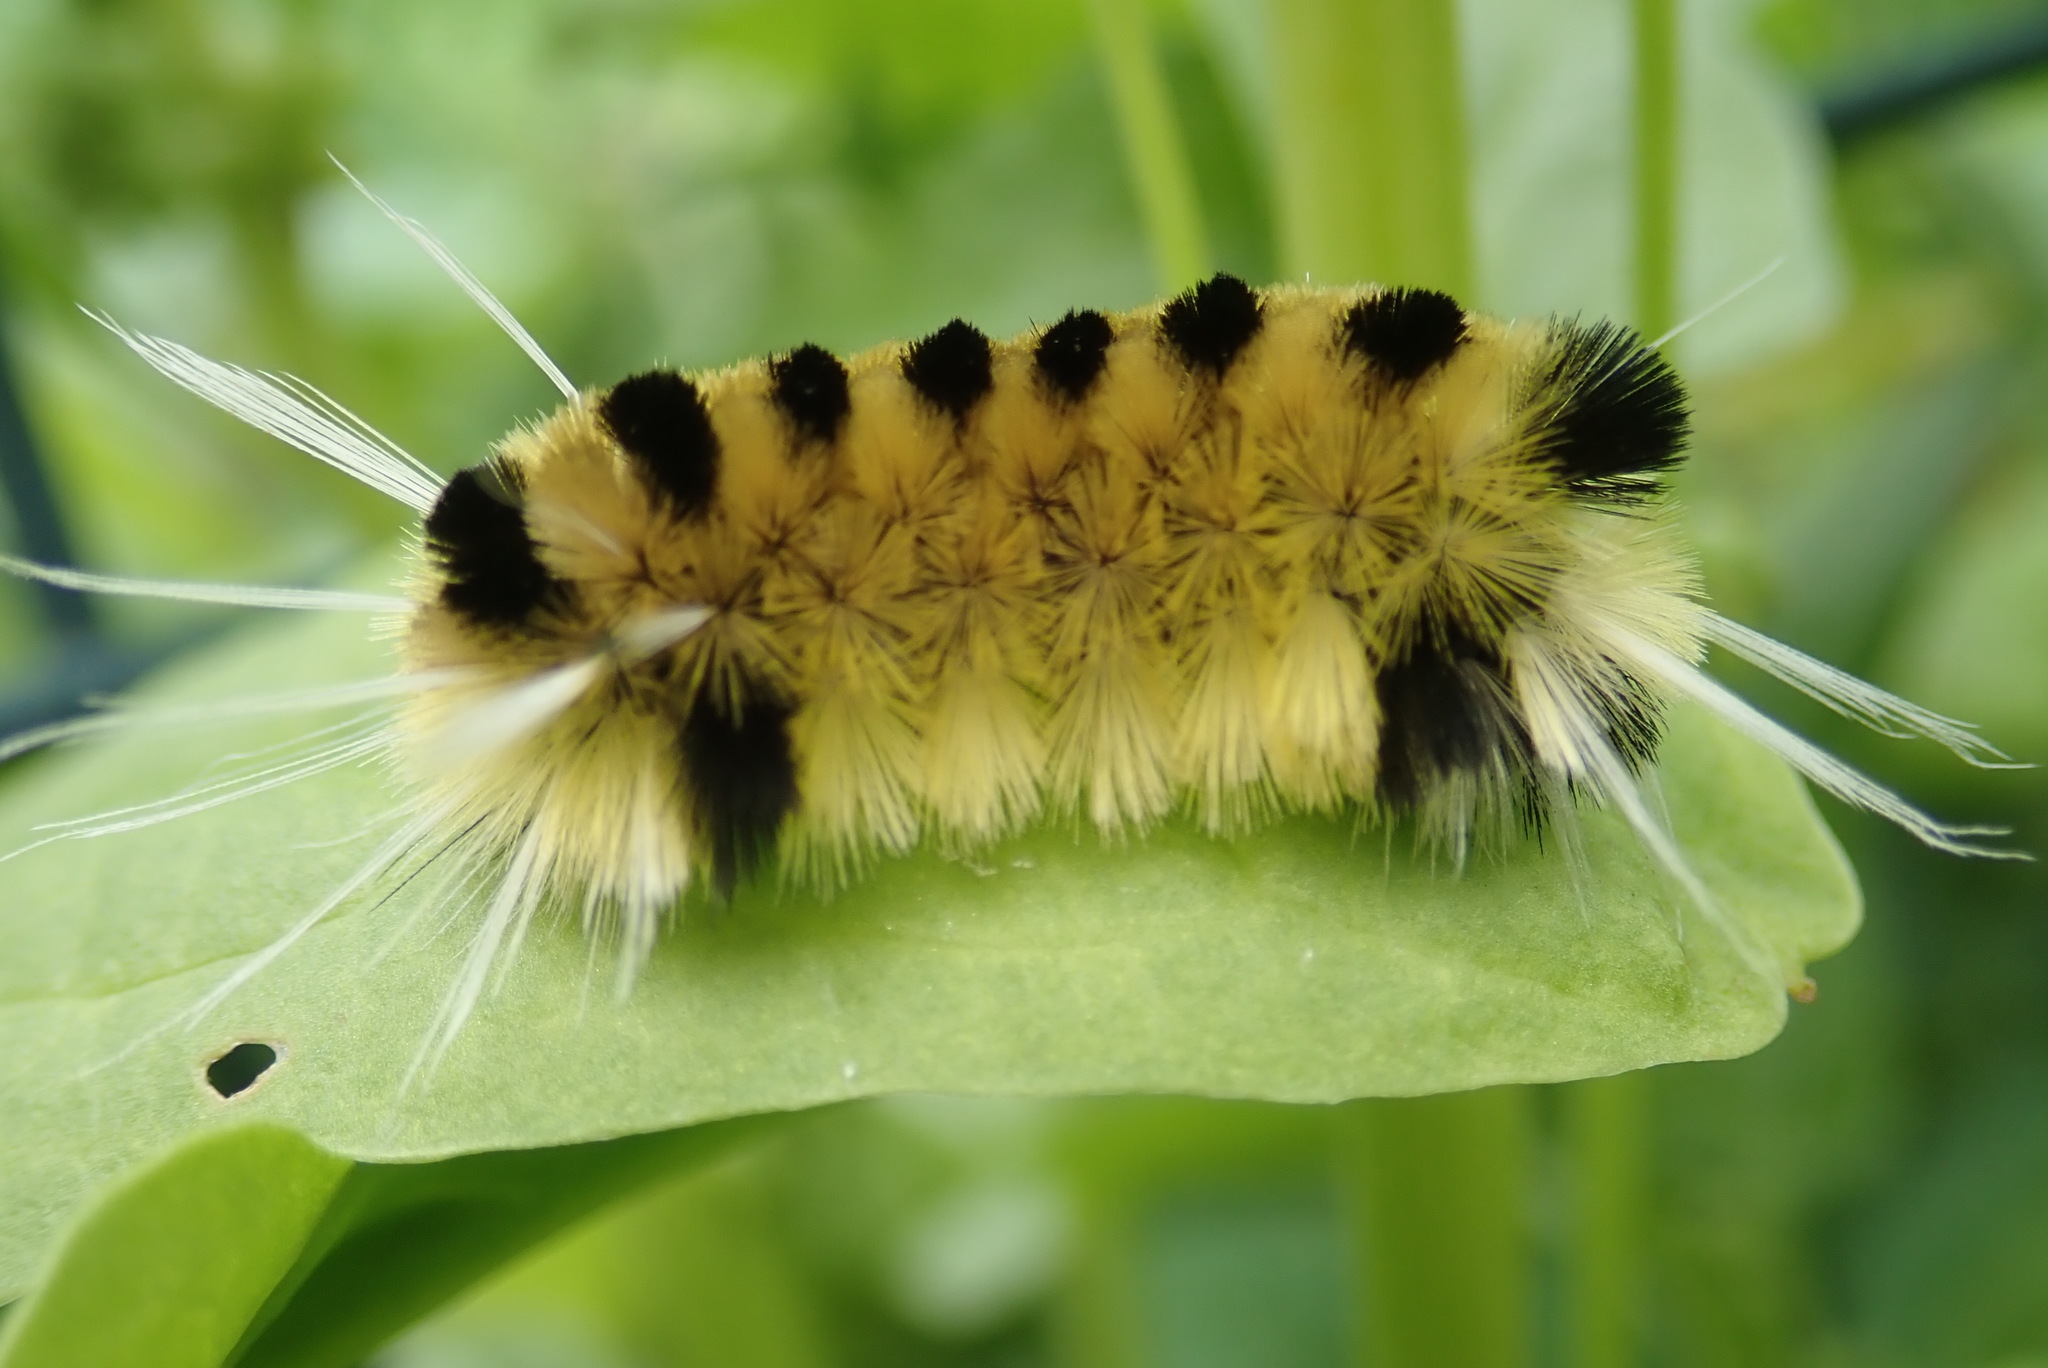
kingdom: Animalia
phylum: Arthropoda
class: Insecta
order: Lepidoptera
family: Erebidae
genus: Lophocampa
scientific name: Lophocampa maculata
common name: Spotted tussock moth
